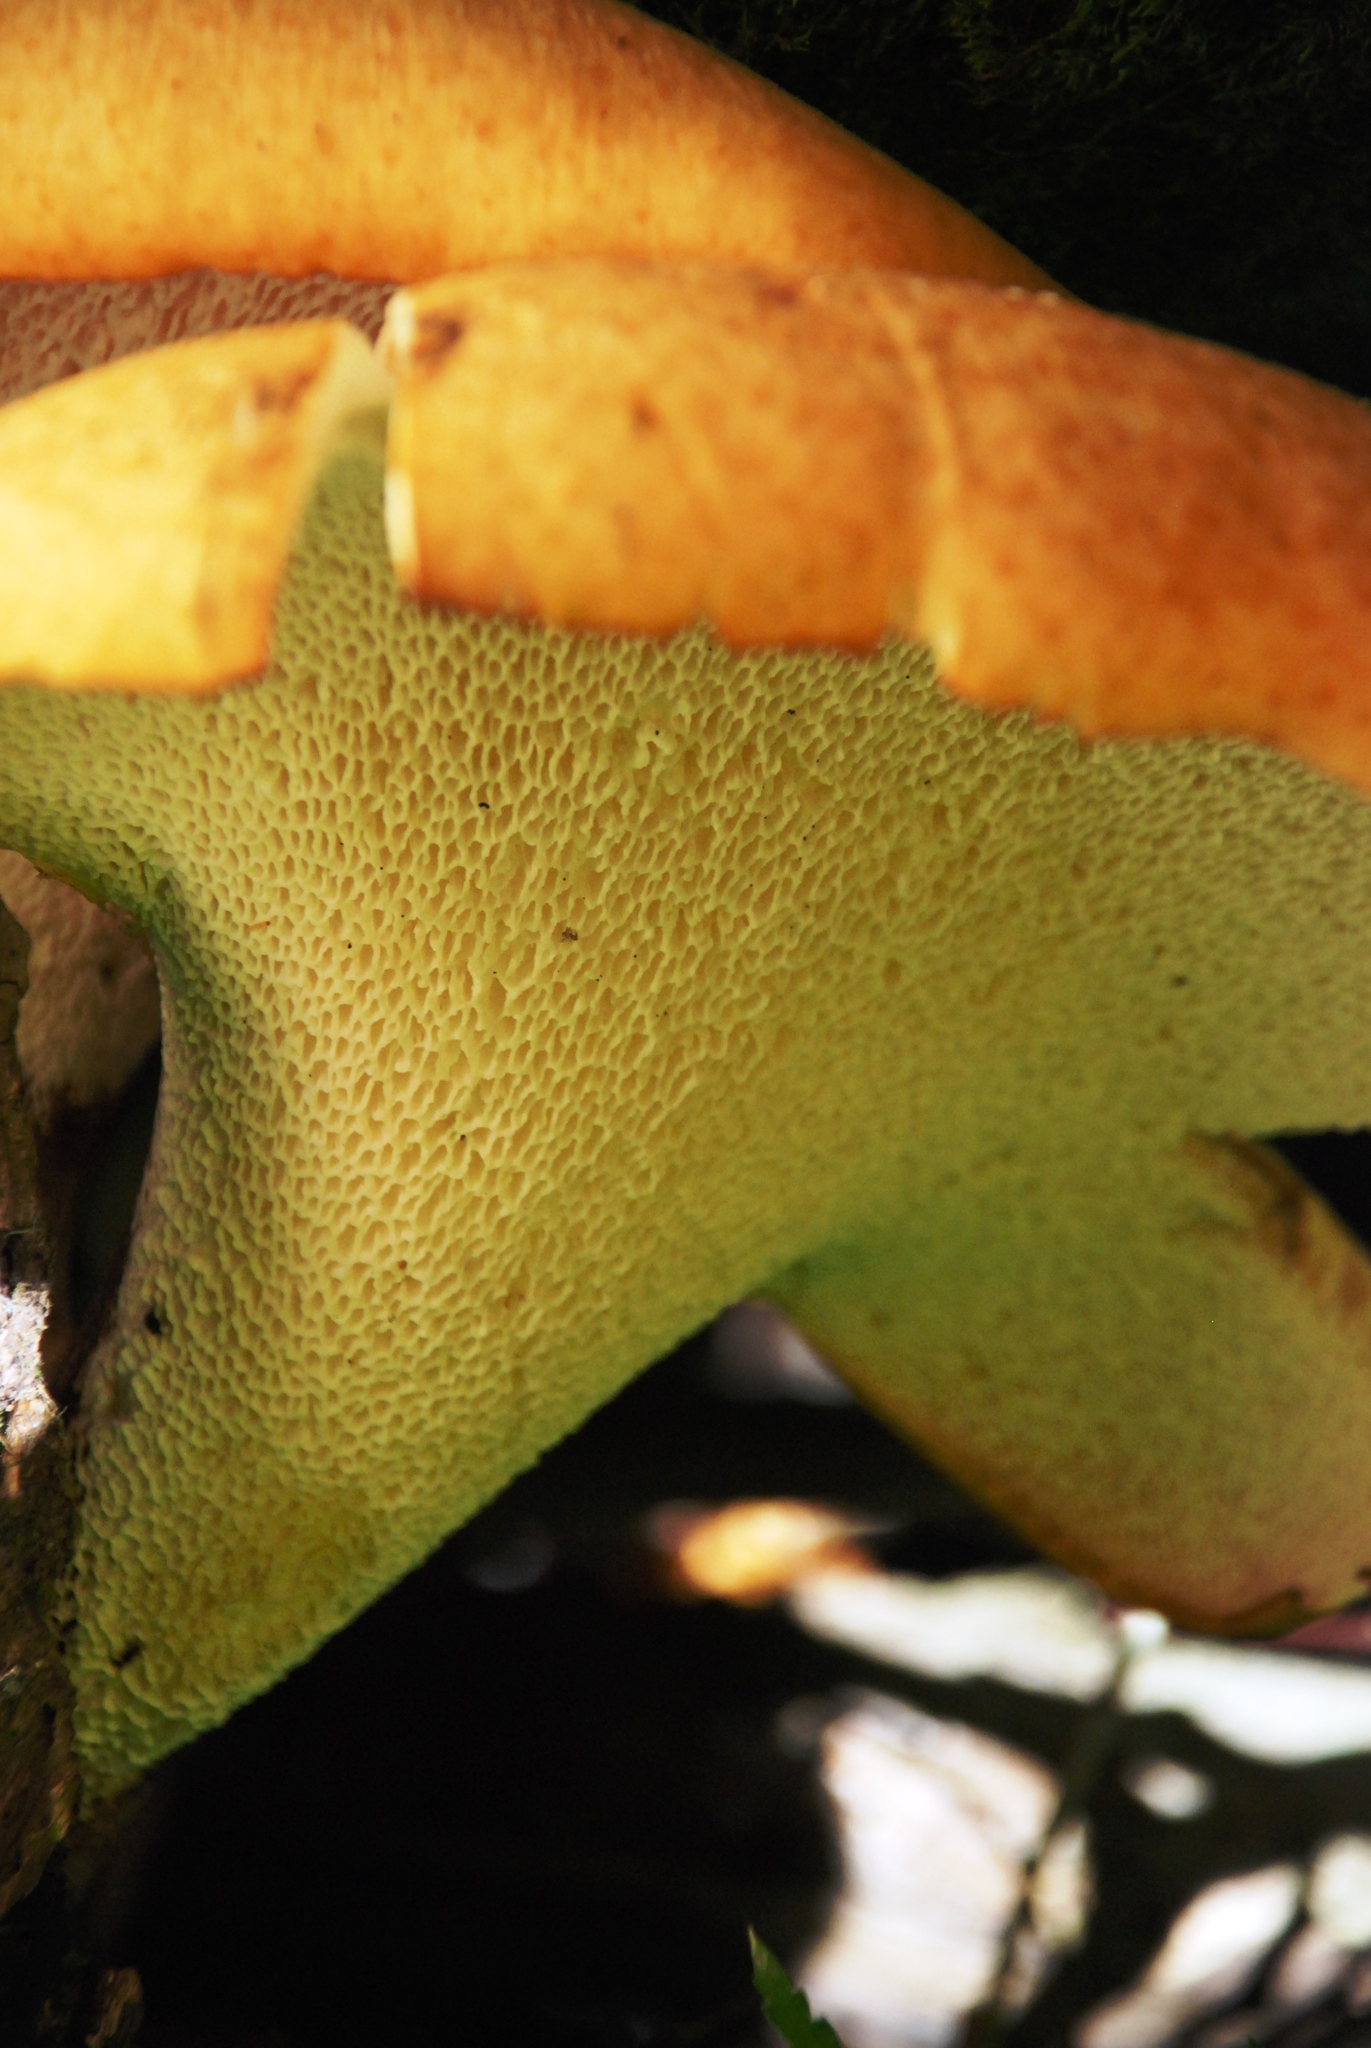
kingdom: Fungi
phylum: Basidiomycota
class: Agaricomycetes
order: Polyporales
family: Polyporaceae
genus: Neofavolus
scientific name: Neofavolus alveolaris
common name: Hexagonal-pored polypore
